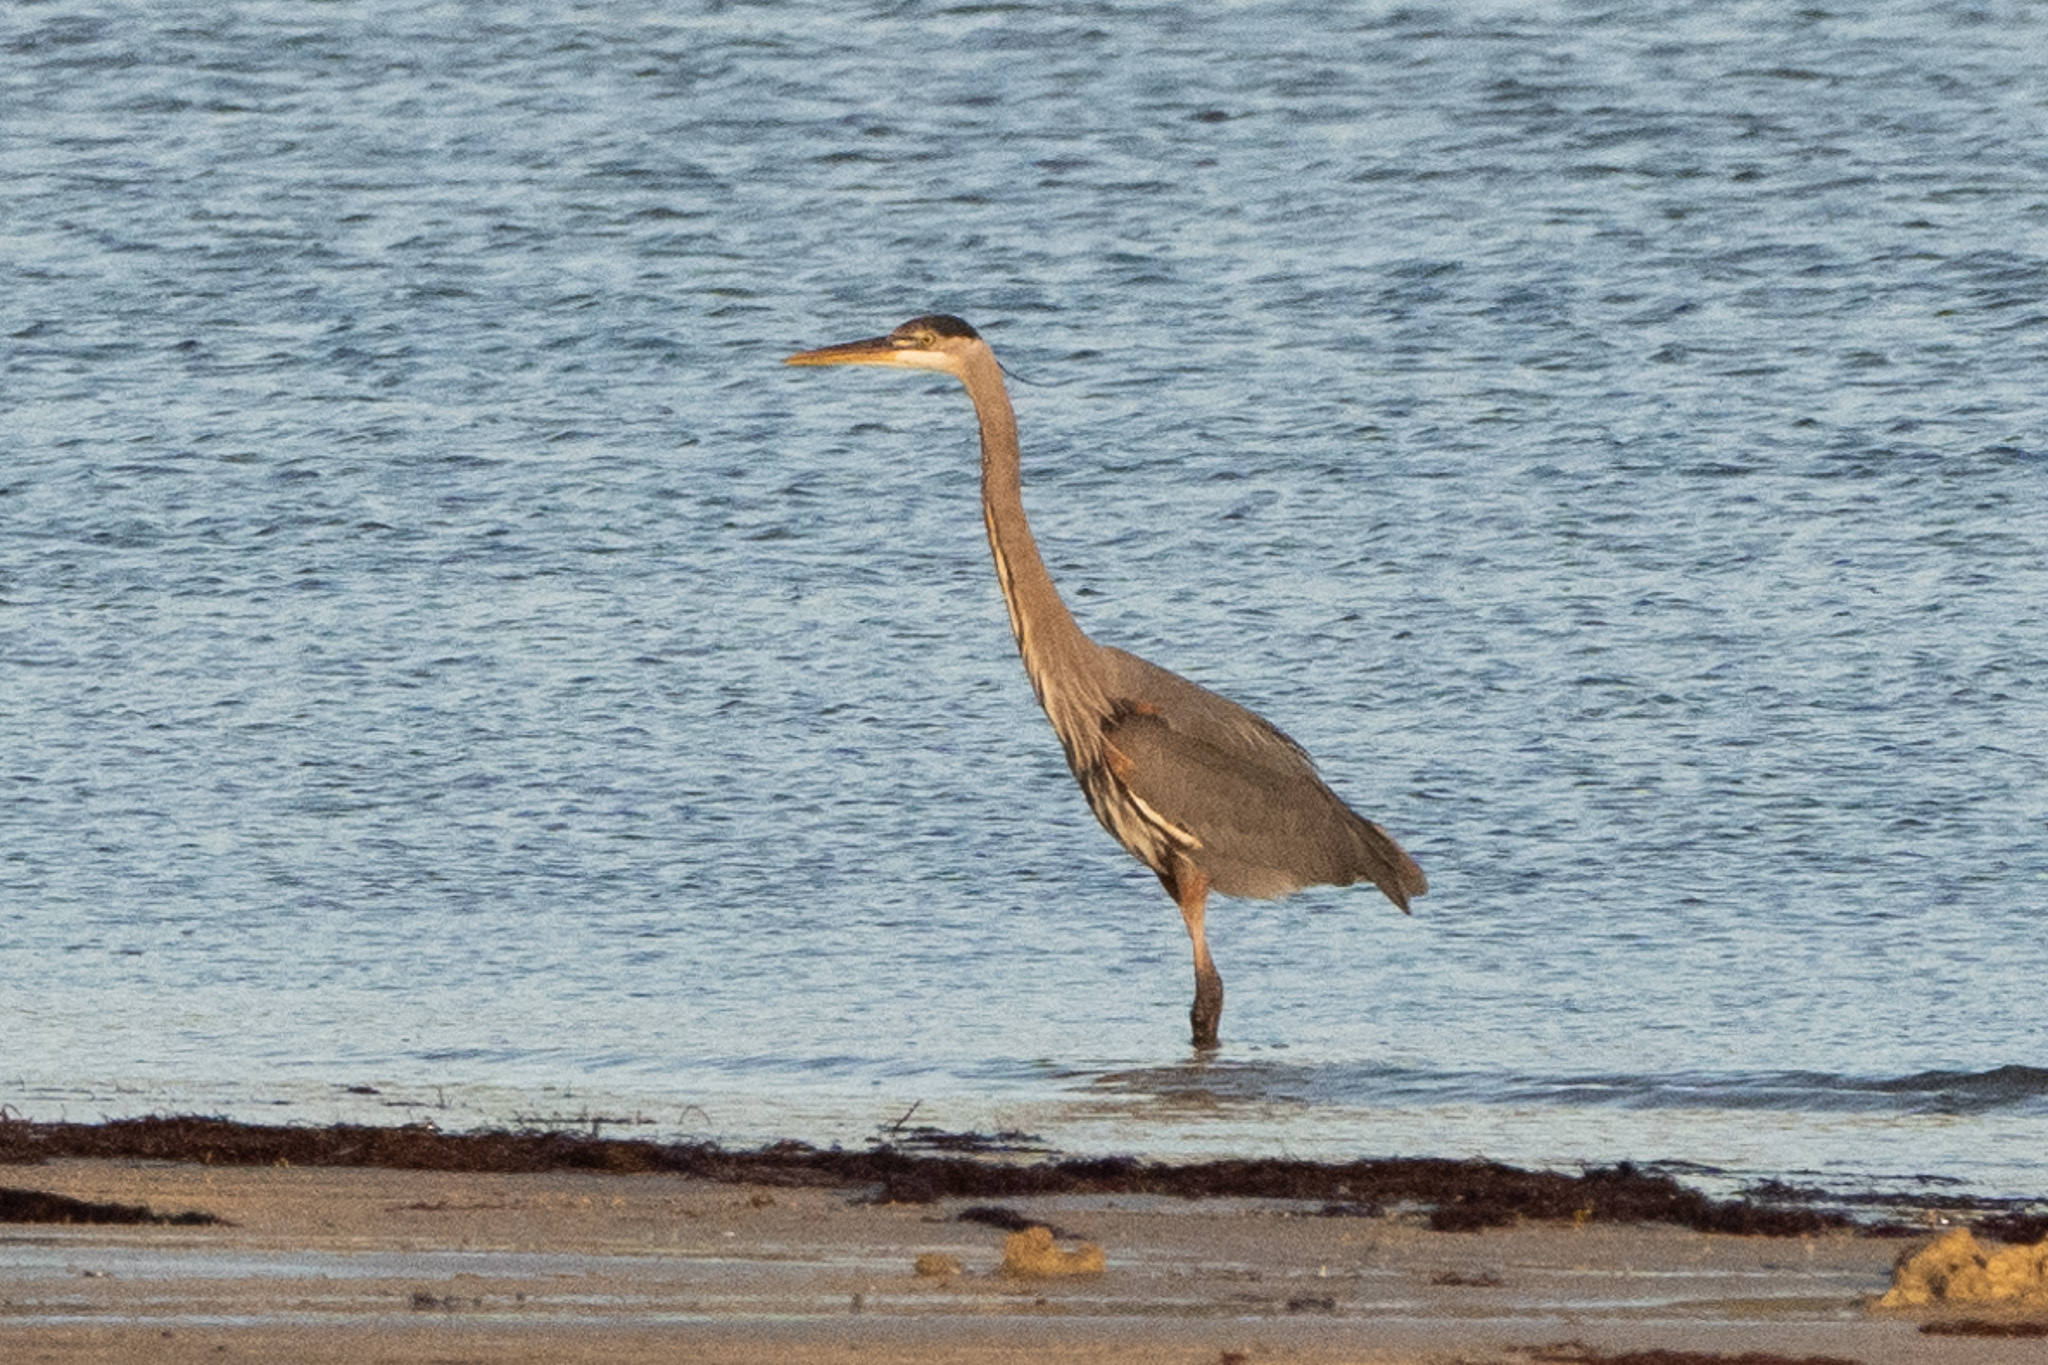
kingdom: Animalia
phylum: Chordata
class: Aves
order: Pelecaniformes
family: Ardeidae
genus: Ardea
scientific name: Ardea herodias
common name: Great blue heron
